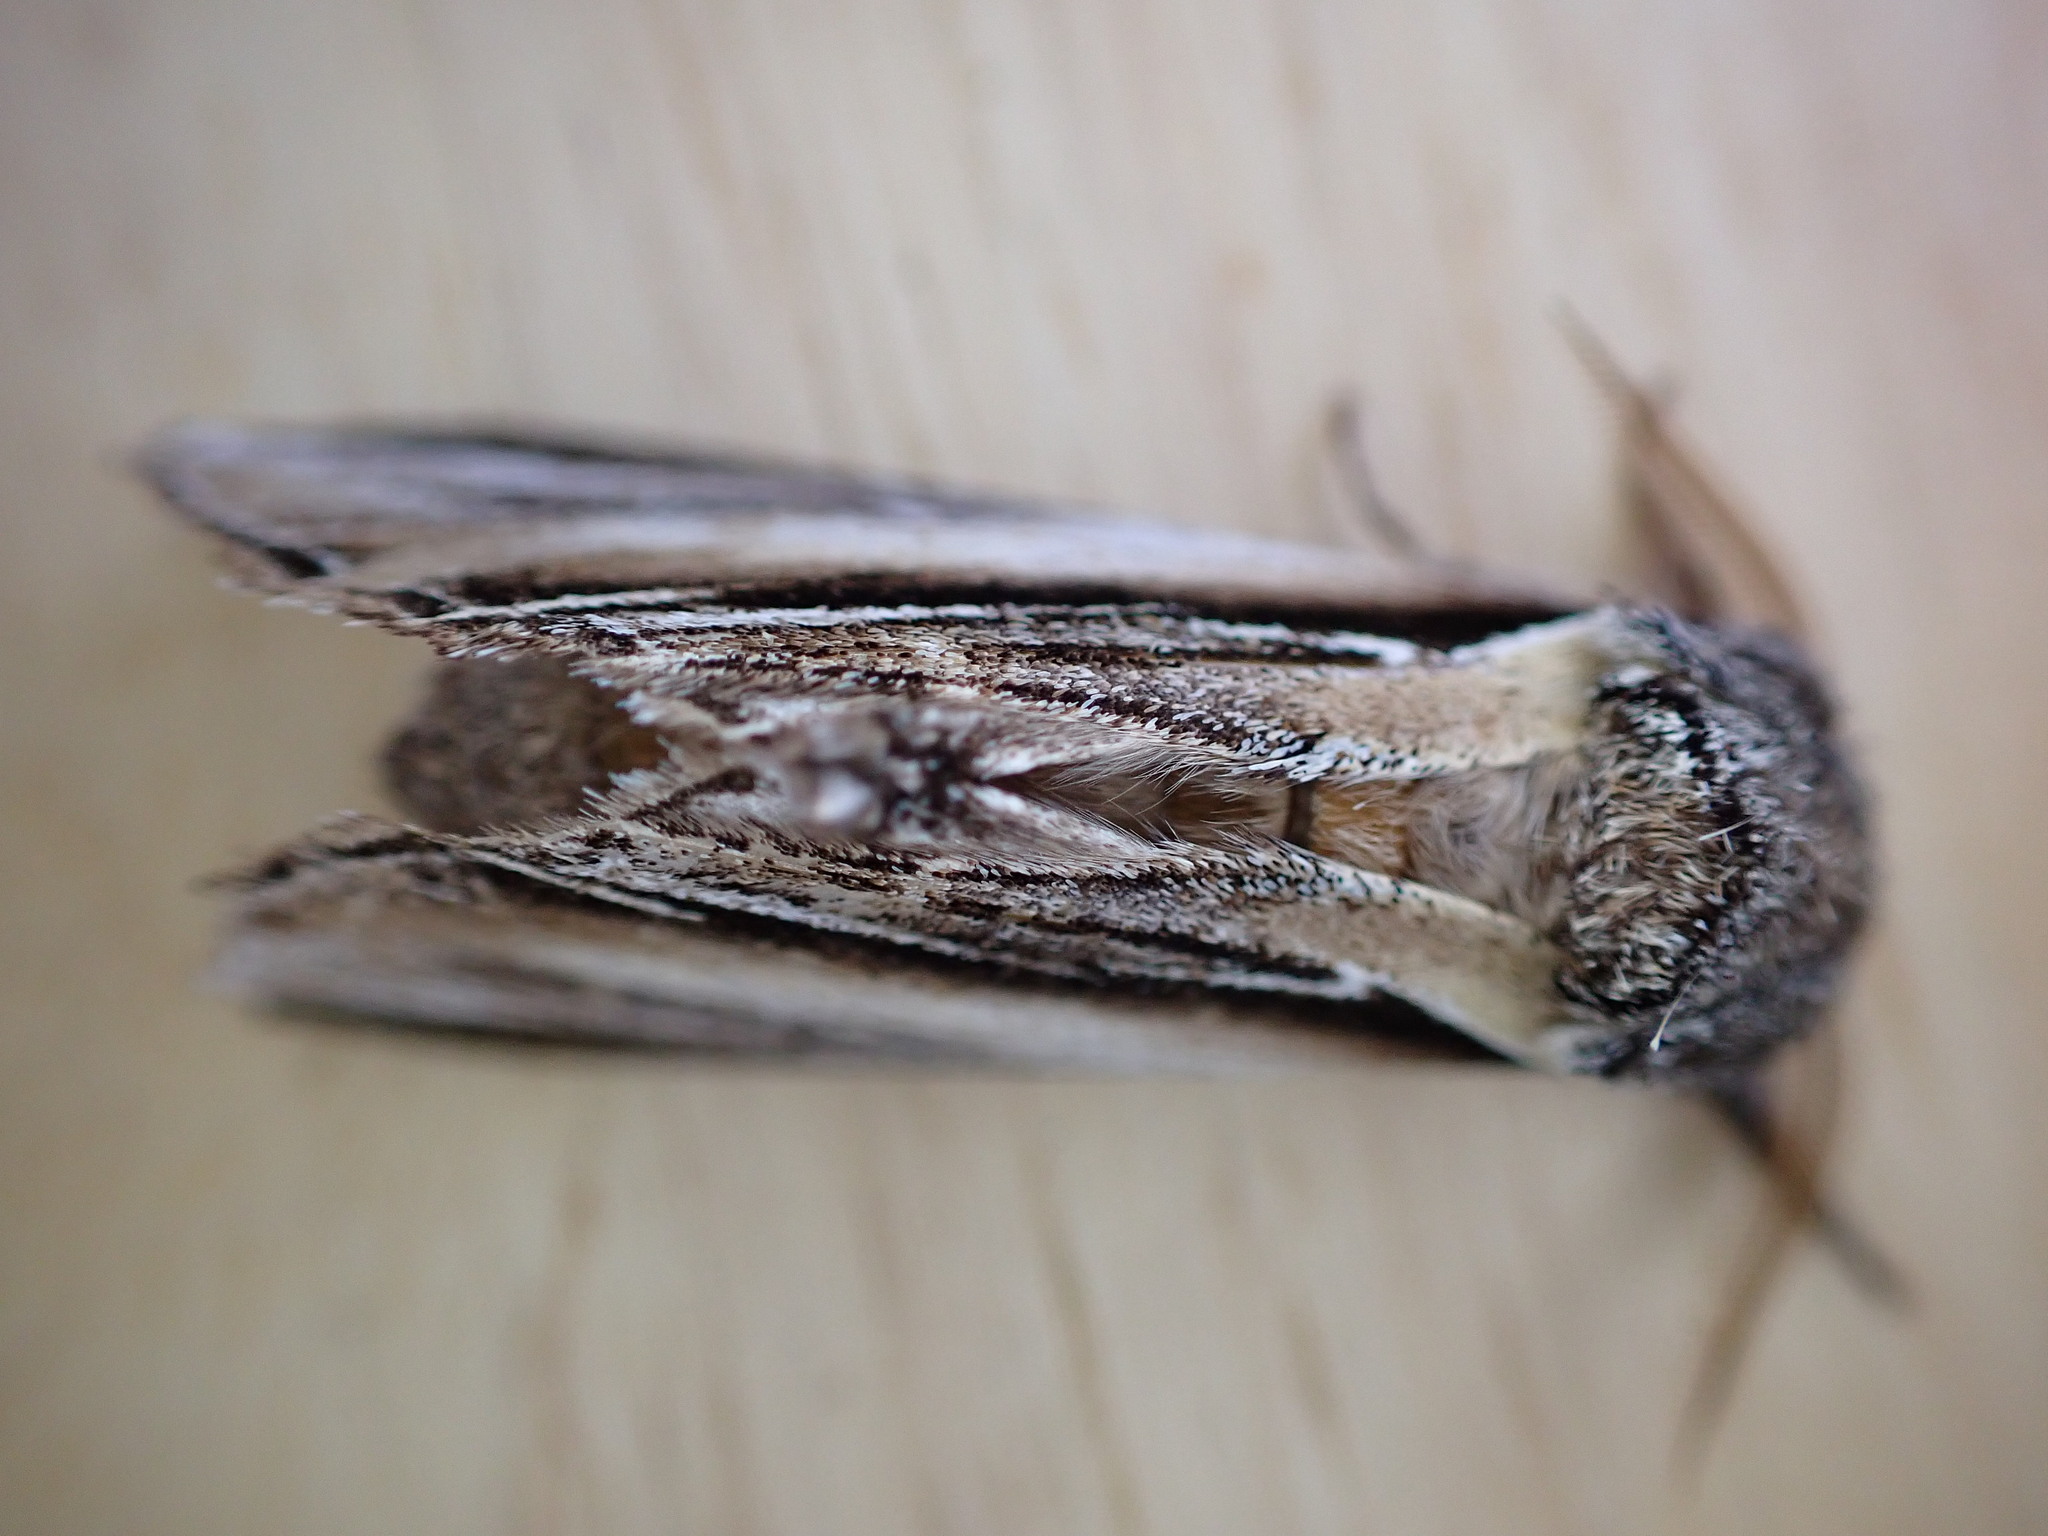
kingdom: Animalia
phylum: Arthropoda
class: Insecta
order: Lepidoptera
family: Notodontidae
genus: Pheosia
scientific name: Pheosia tremula
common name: Swallow prominent
